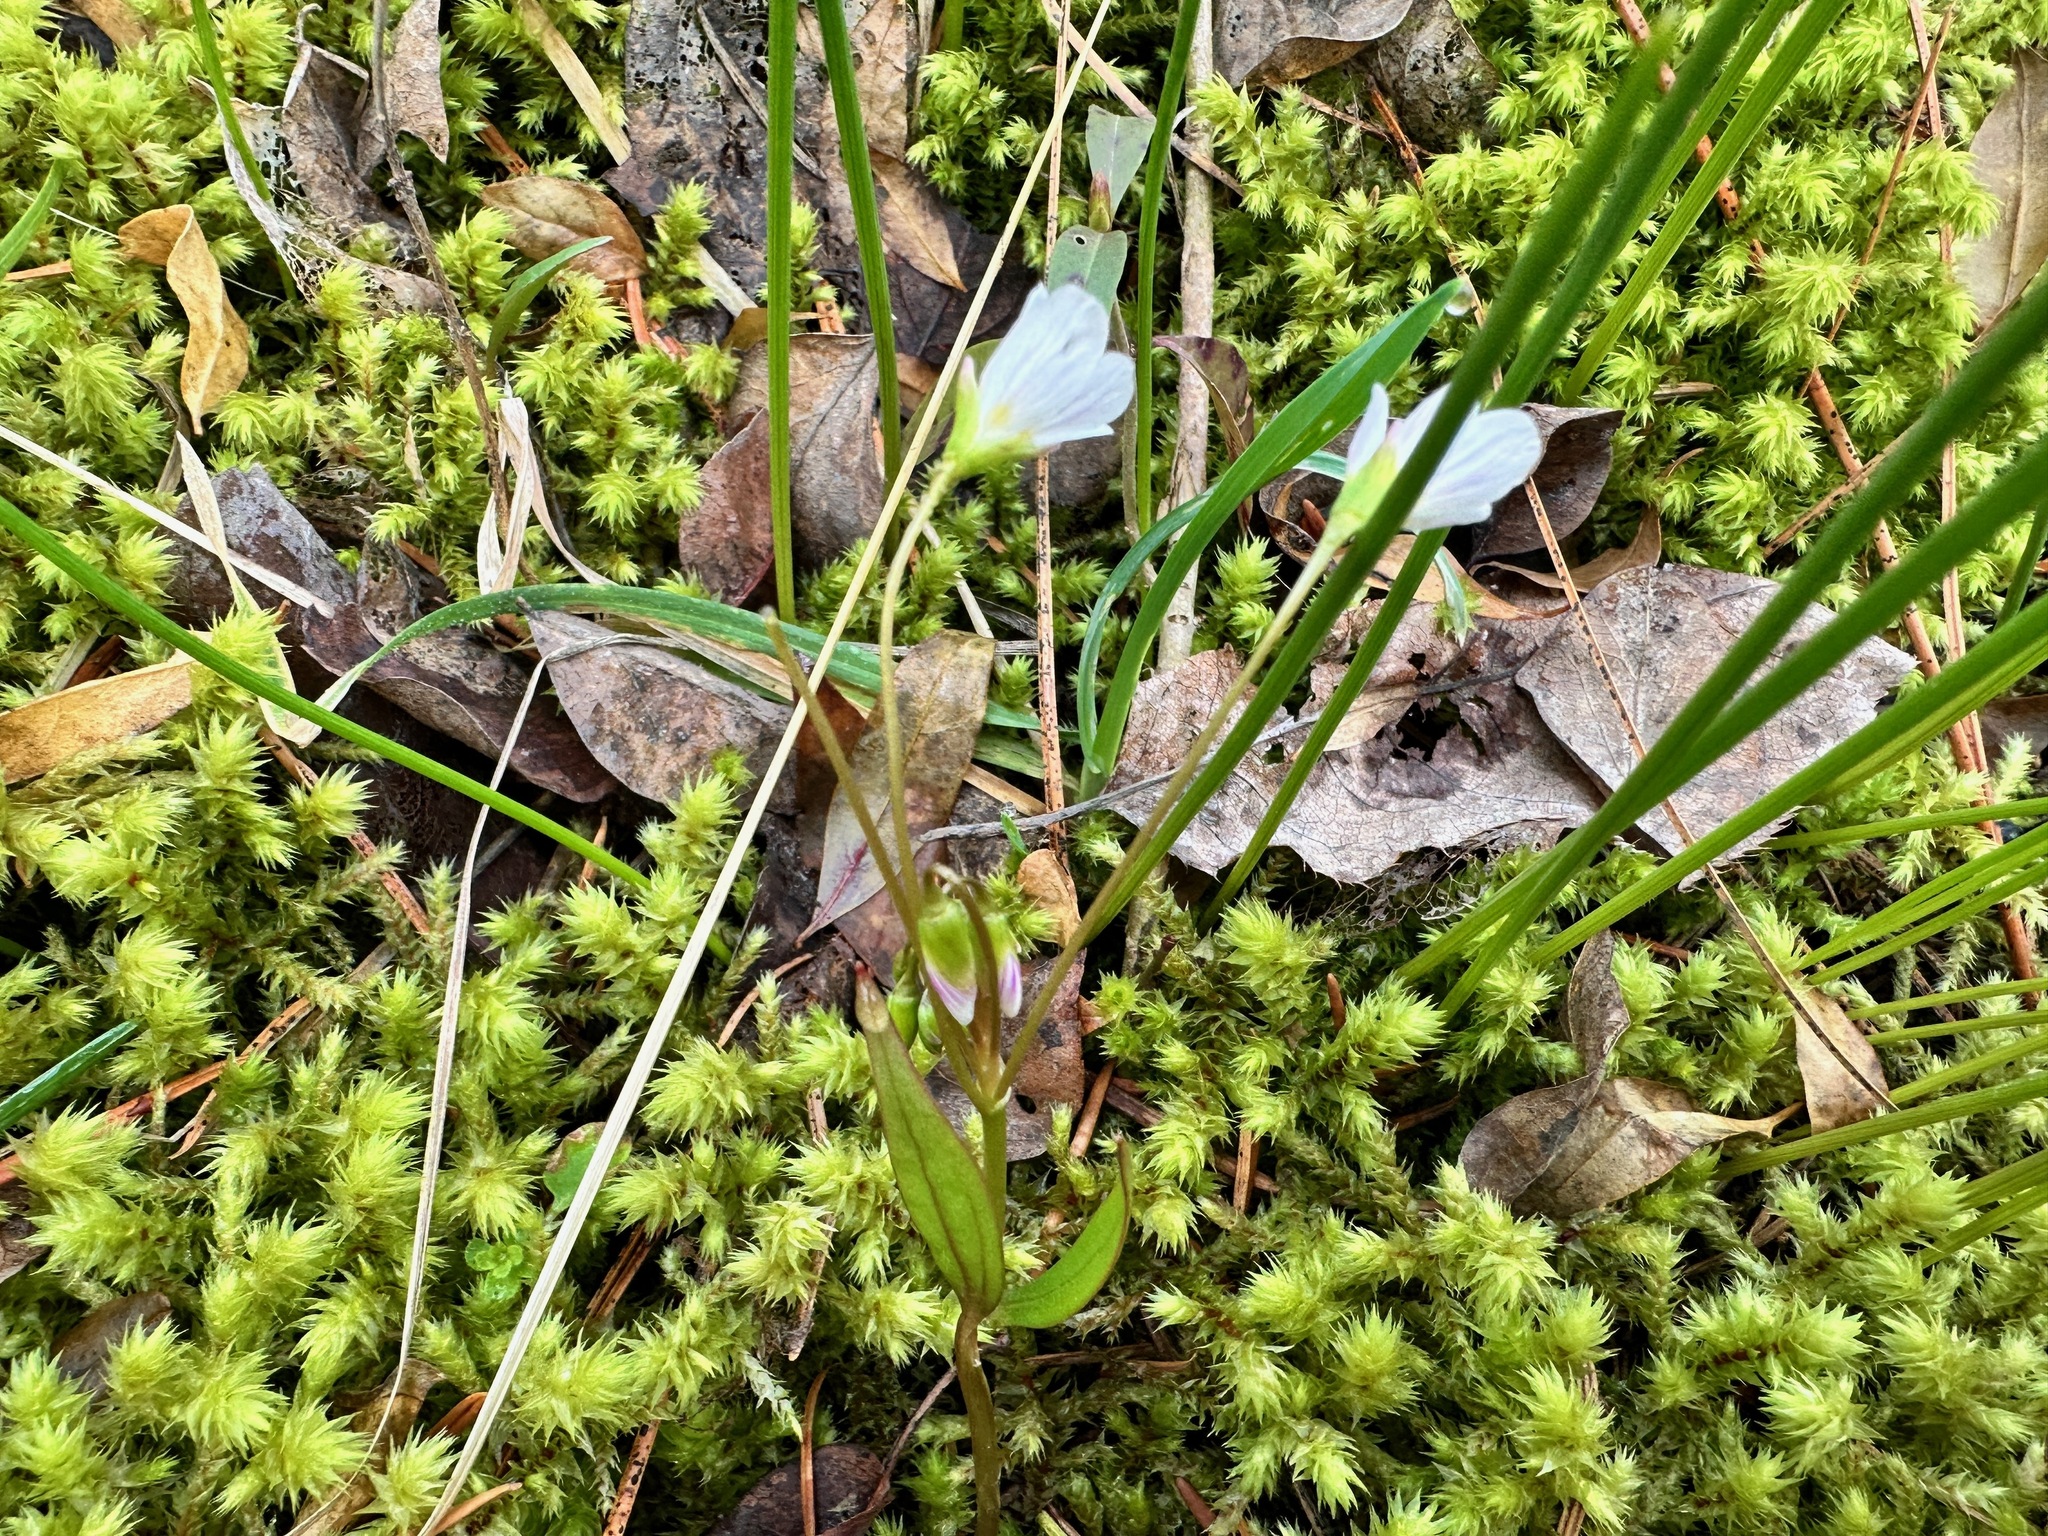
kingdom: Plantae
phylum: Tracheophyta
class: Magnoliopsida
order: Caryophyllales
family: Montiaceae
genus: Claytonia
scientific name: Claytonia lanceolata
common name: Western spring-beauty
